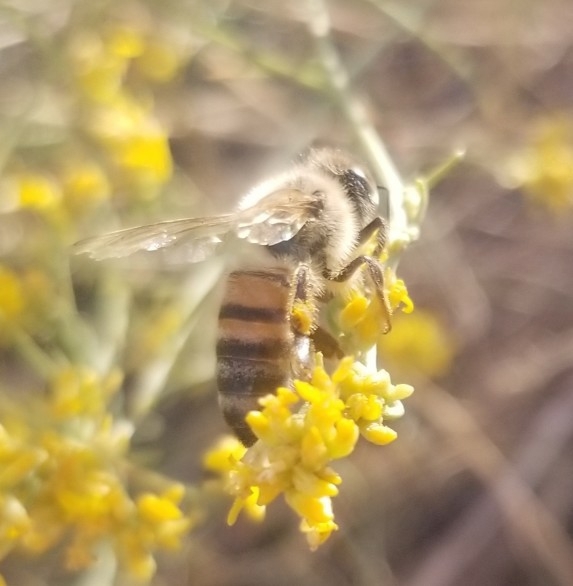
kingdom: Animalia
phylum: Arthropoda
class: Insecta
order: Hymenoptera
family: Apidae
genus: Apis
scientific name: Apis mellifera
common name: Honey bee
